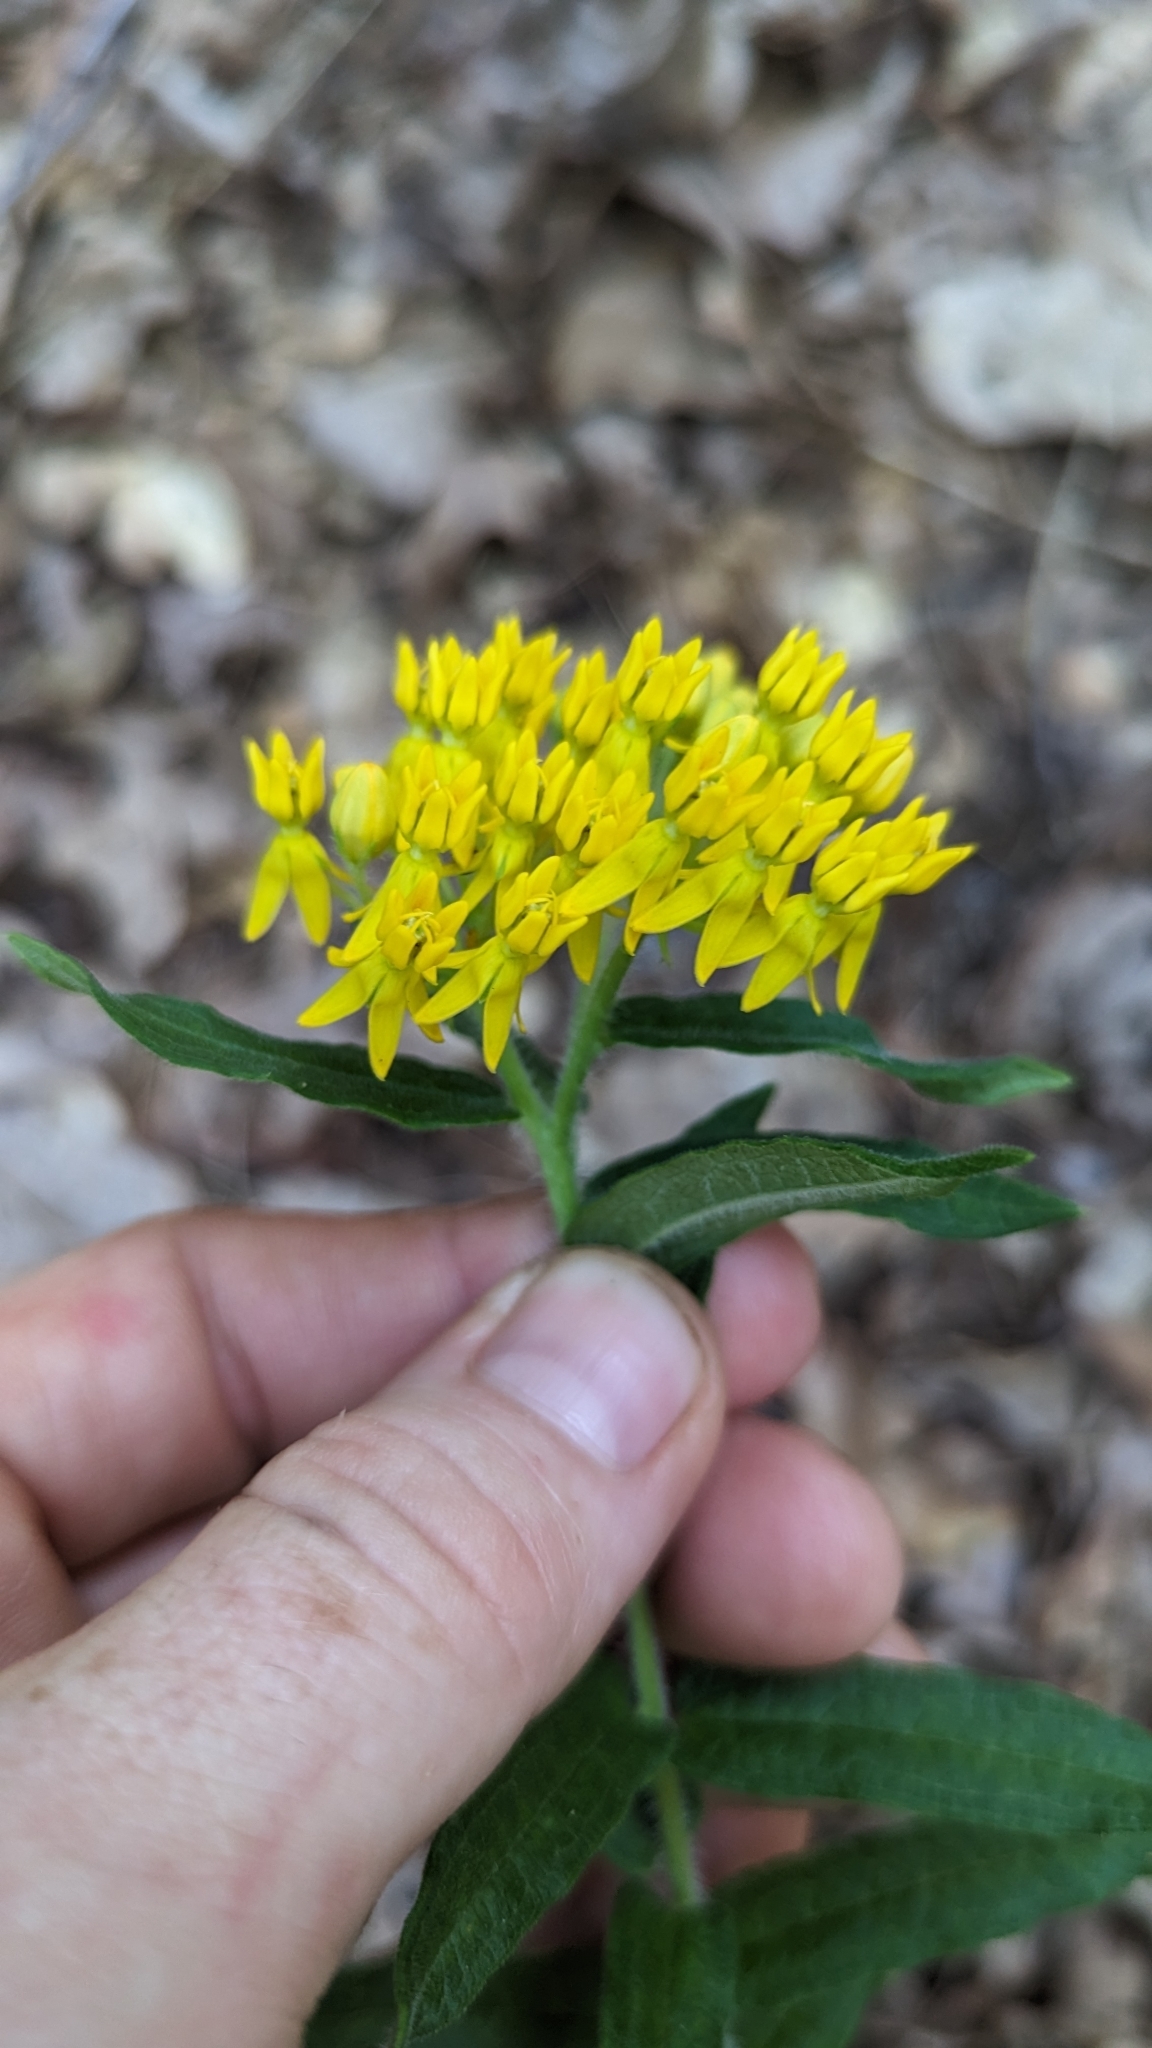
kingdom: Plantae
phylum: Tracheophyta
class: Magnoliopsida
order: Gentianales
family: Apocynaceae
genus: Asclepias
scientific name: Asclepias tuberosa
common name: Butterfly milkweed
